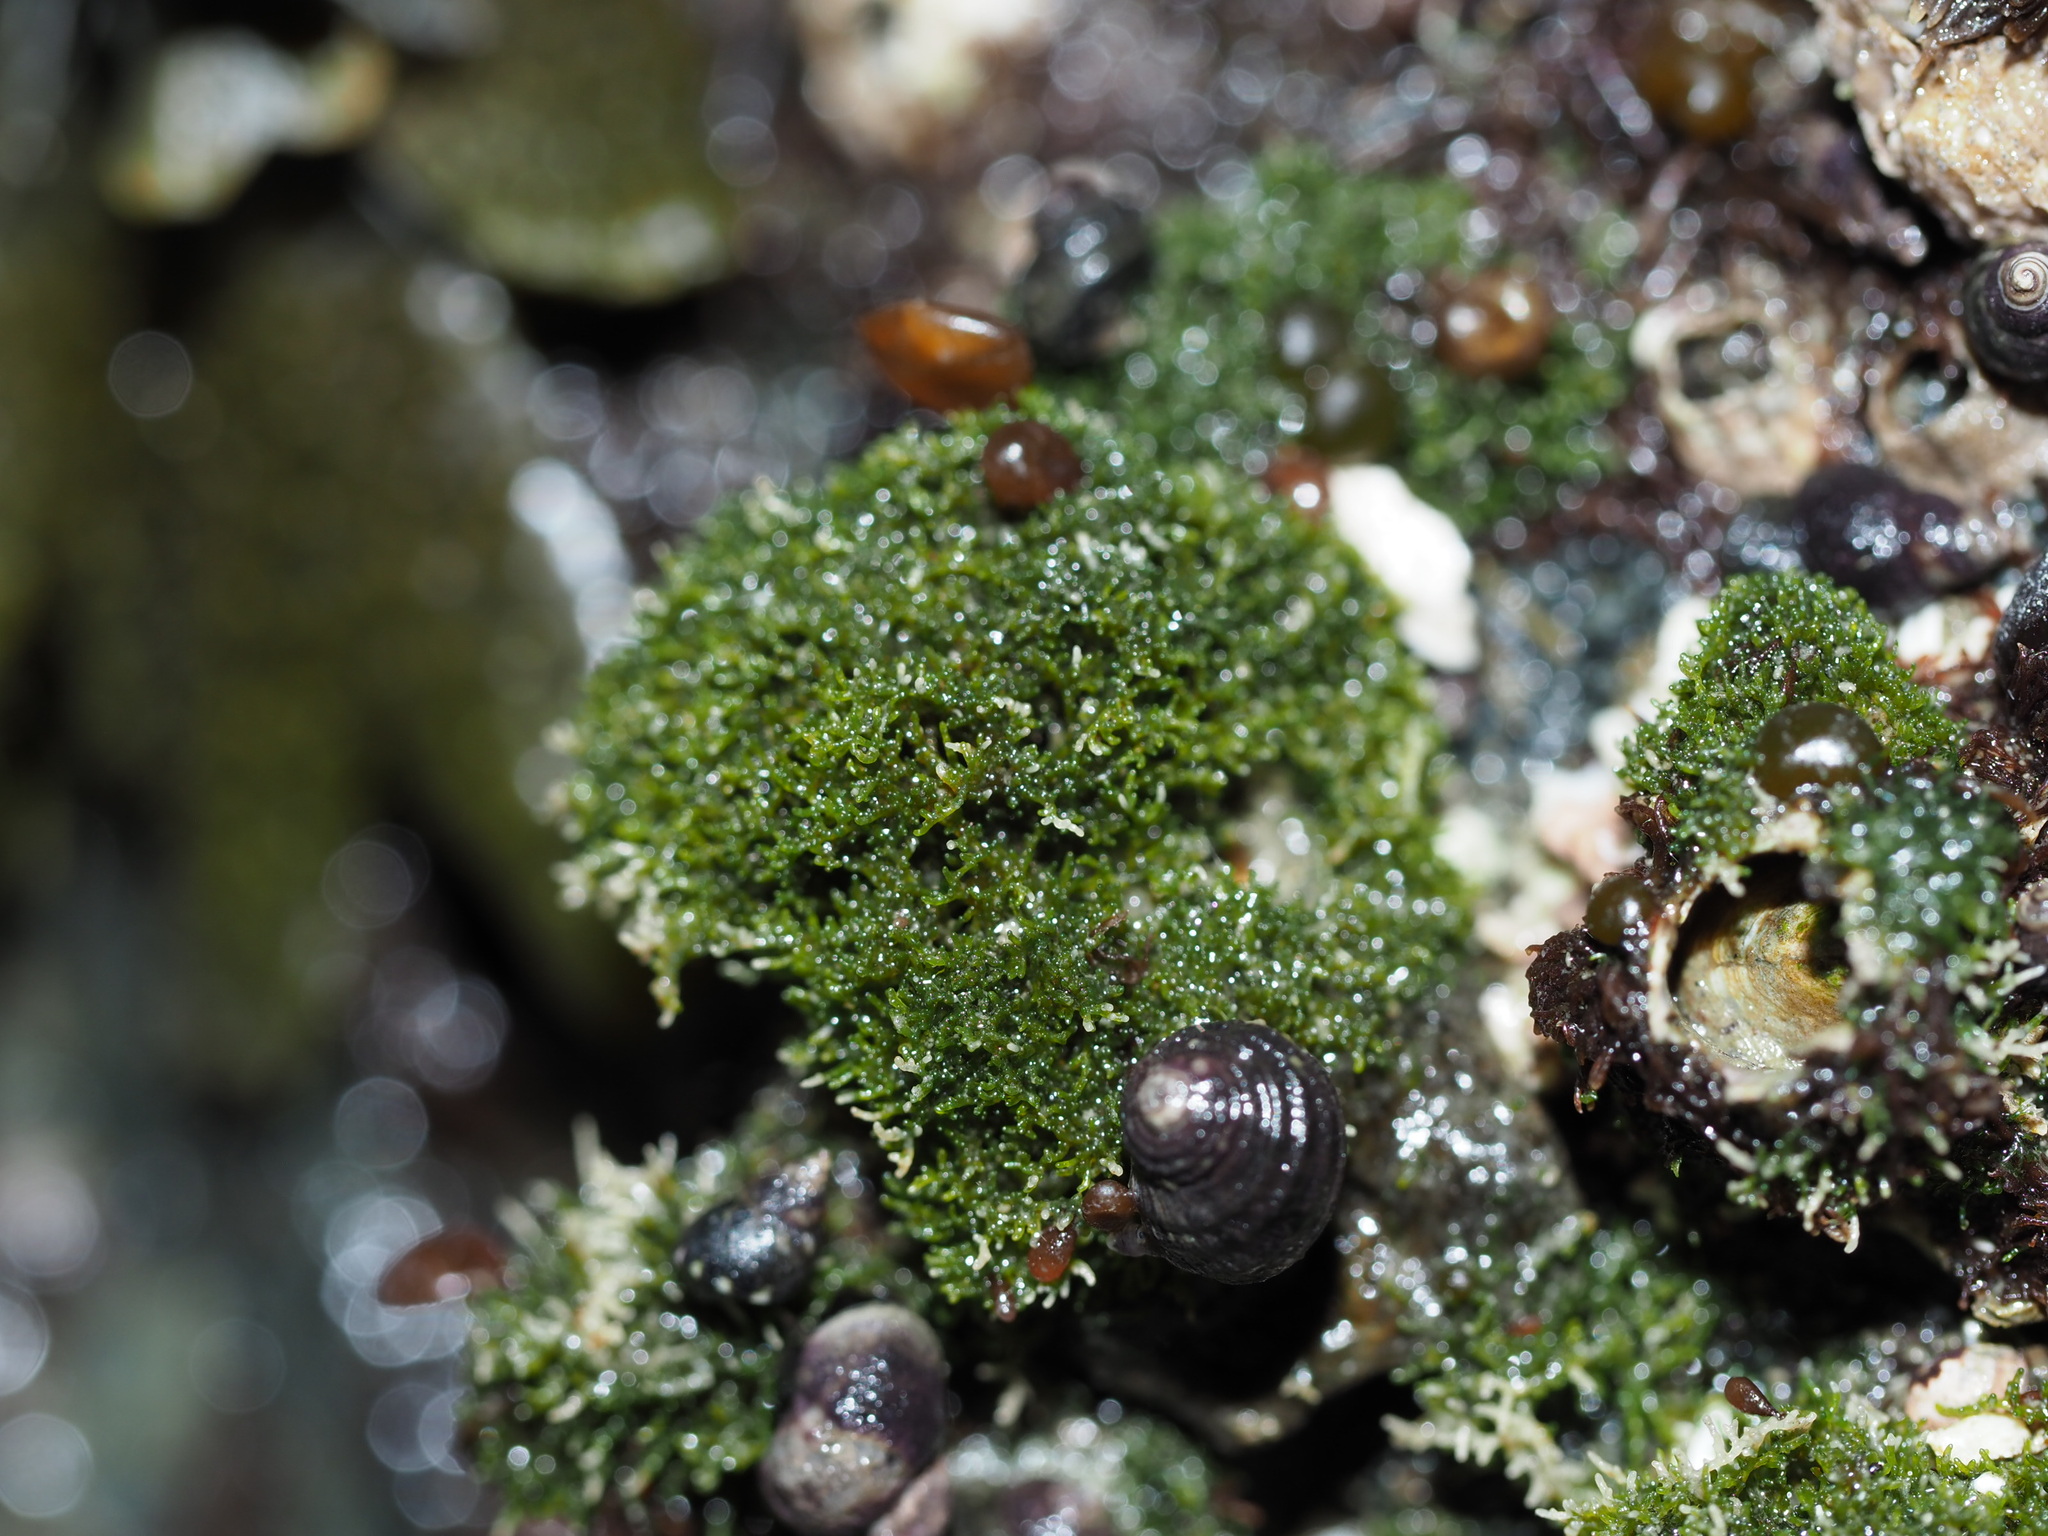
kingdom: Plantae
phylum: Chlorophyta
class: Ulvophyceae
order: Cladophorales
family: Cladophoraceae
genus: Cladophora
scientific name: Cladophora columbiana
